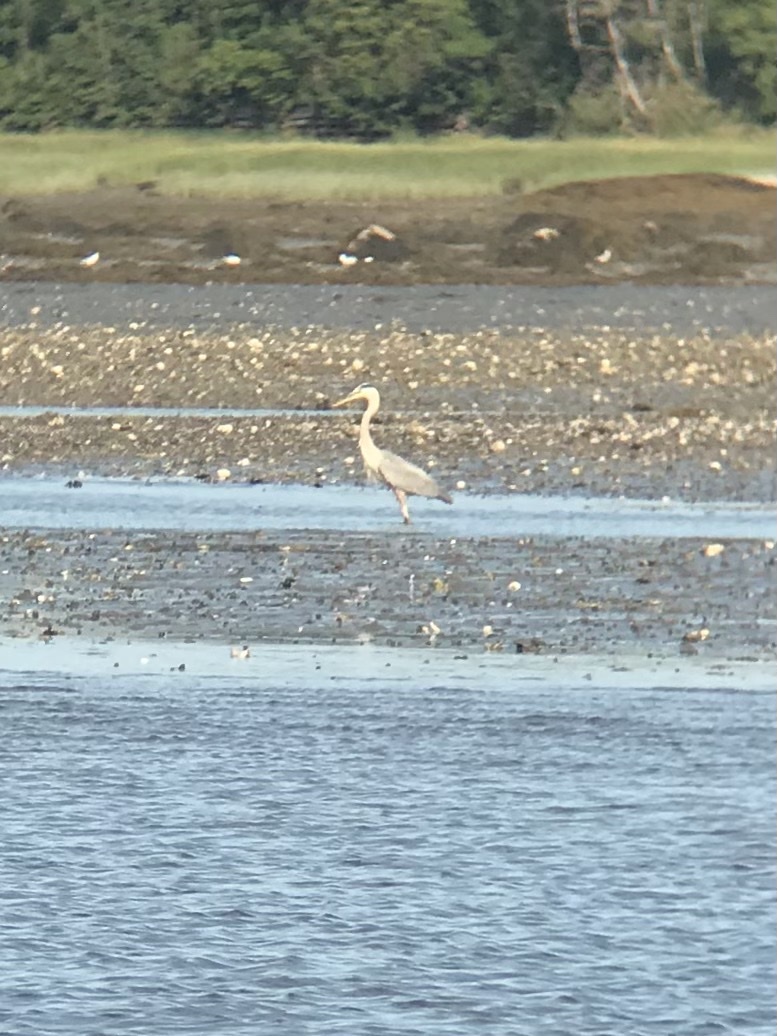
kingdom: Animalia
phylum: Chordata
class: Aves
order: Pelecaniformes
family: Ardeidae
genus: Ardea
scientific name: Ardea herodias
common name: Great blue heron
